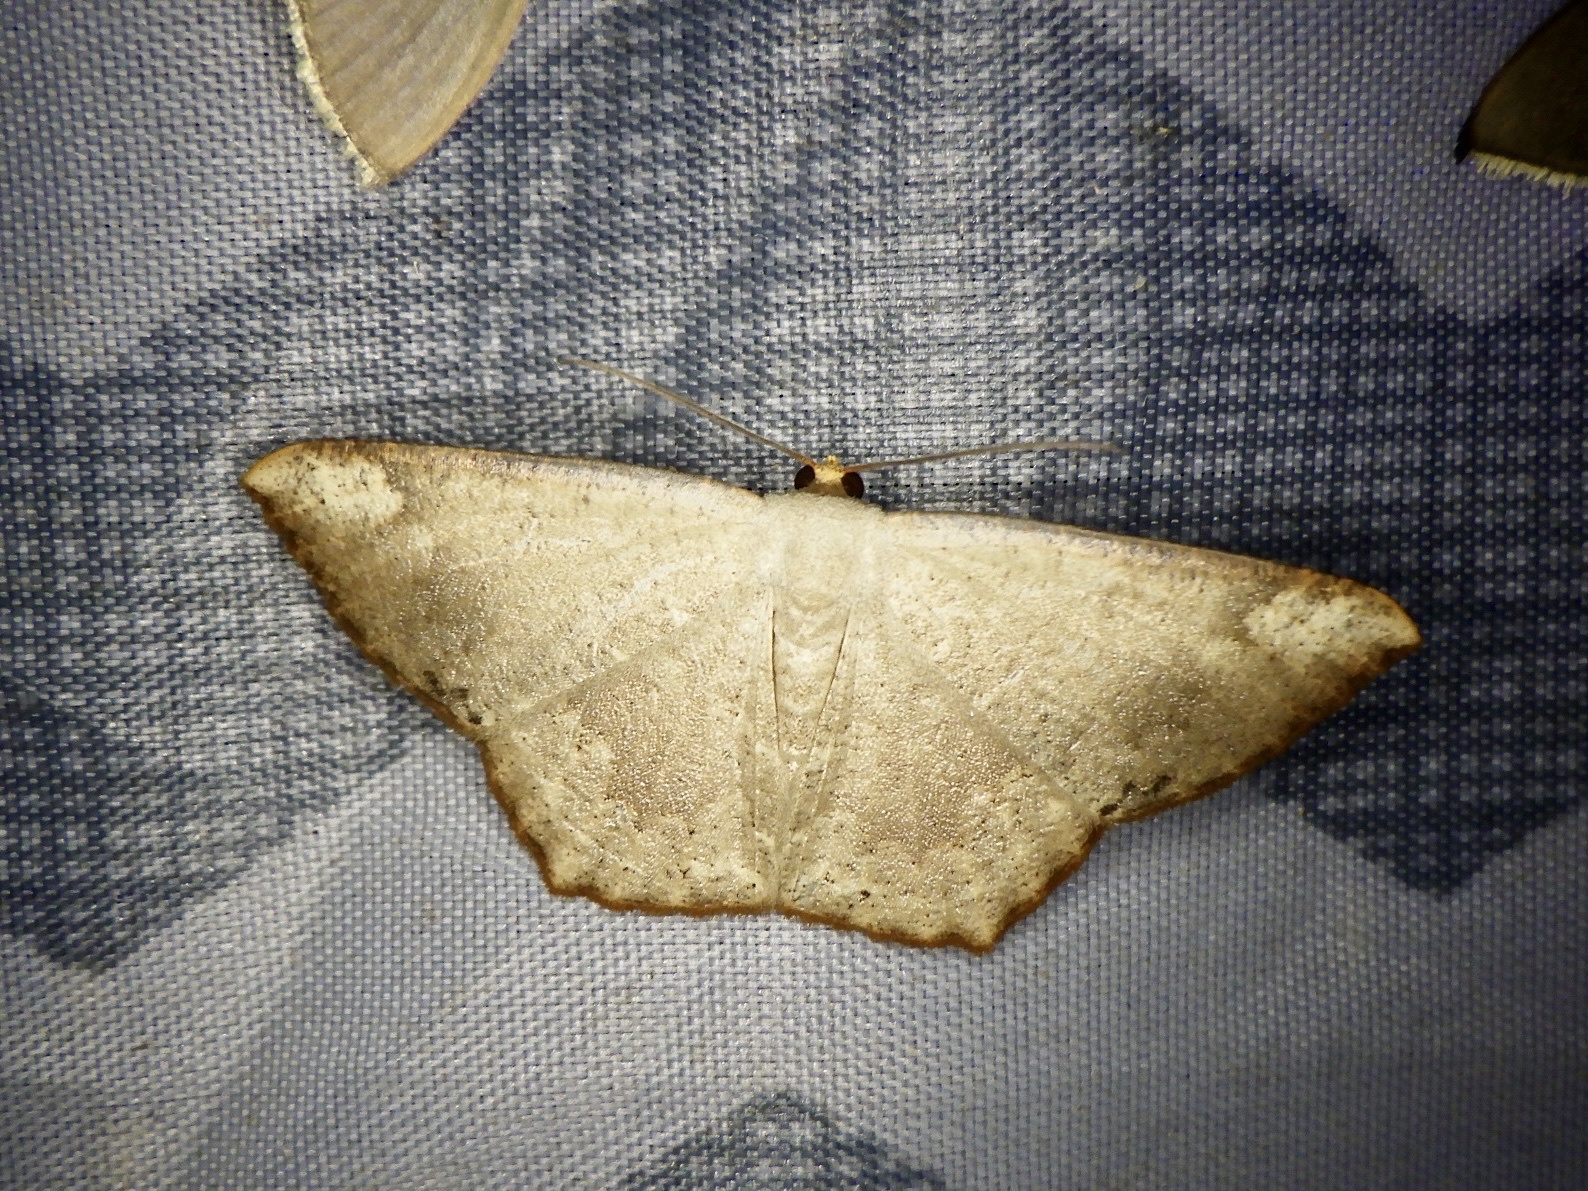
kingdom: Animalia
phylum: Arthropoda
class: Insecta
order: Lepidoptera
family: Geometridae
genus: Peratostega
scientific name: Peratostega deletaria
